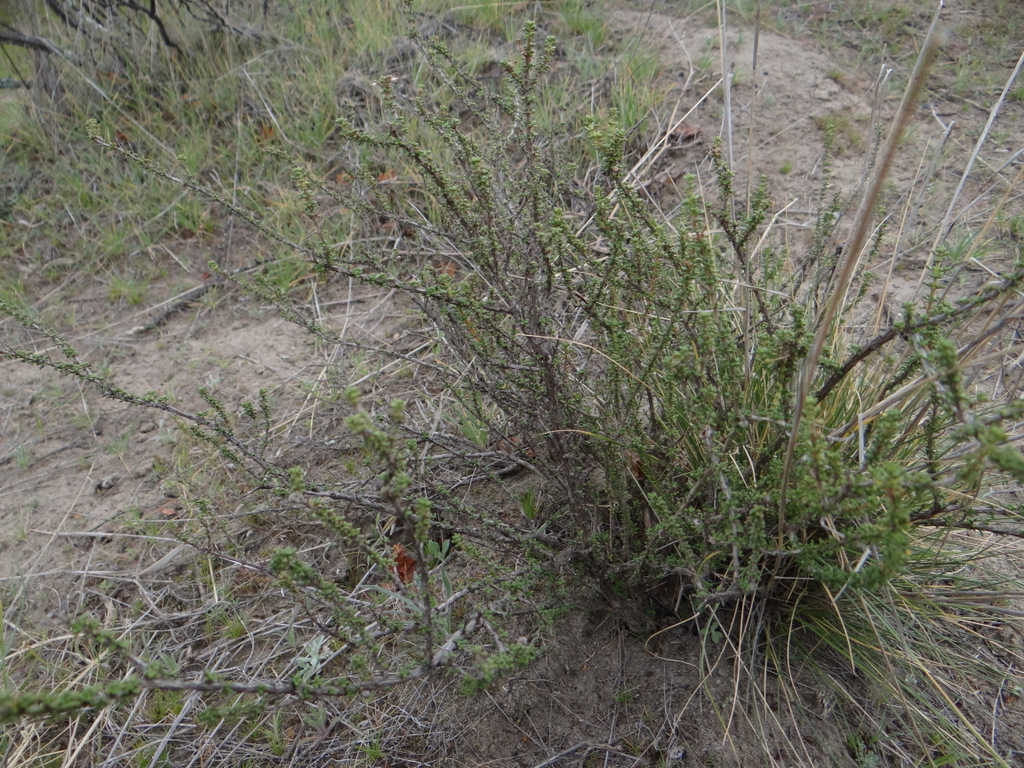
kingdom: Plantae
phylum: Tracheophyta
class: Magnoliopsida
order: Caryophyllales
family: Nyctaginaceae
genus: Bougainvillea
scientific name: Bougainvillea spinosa
